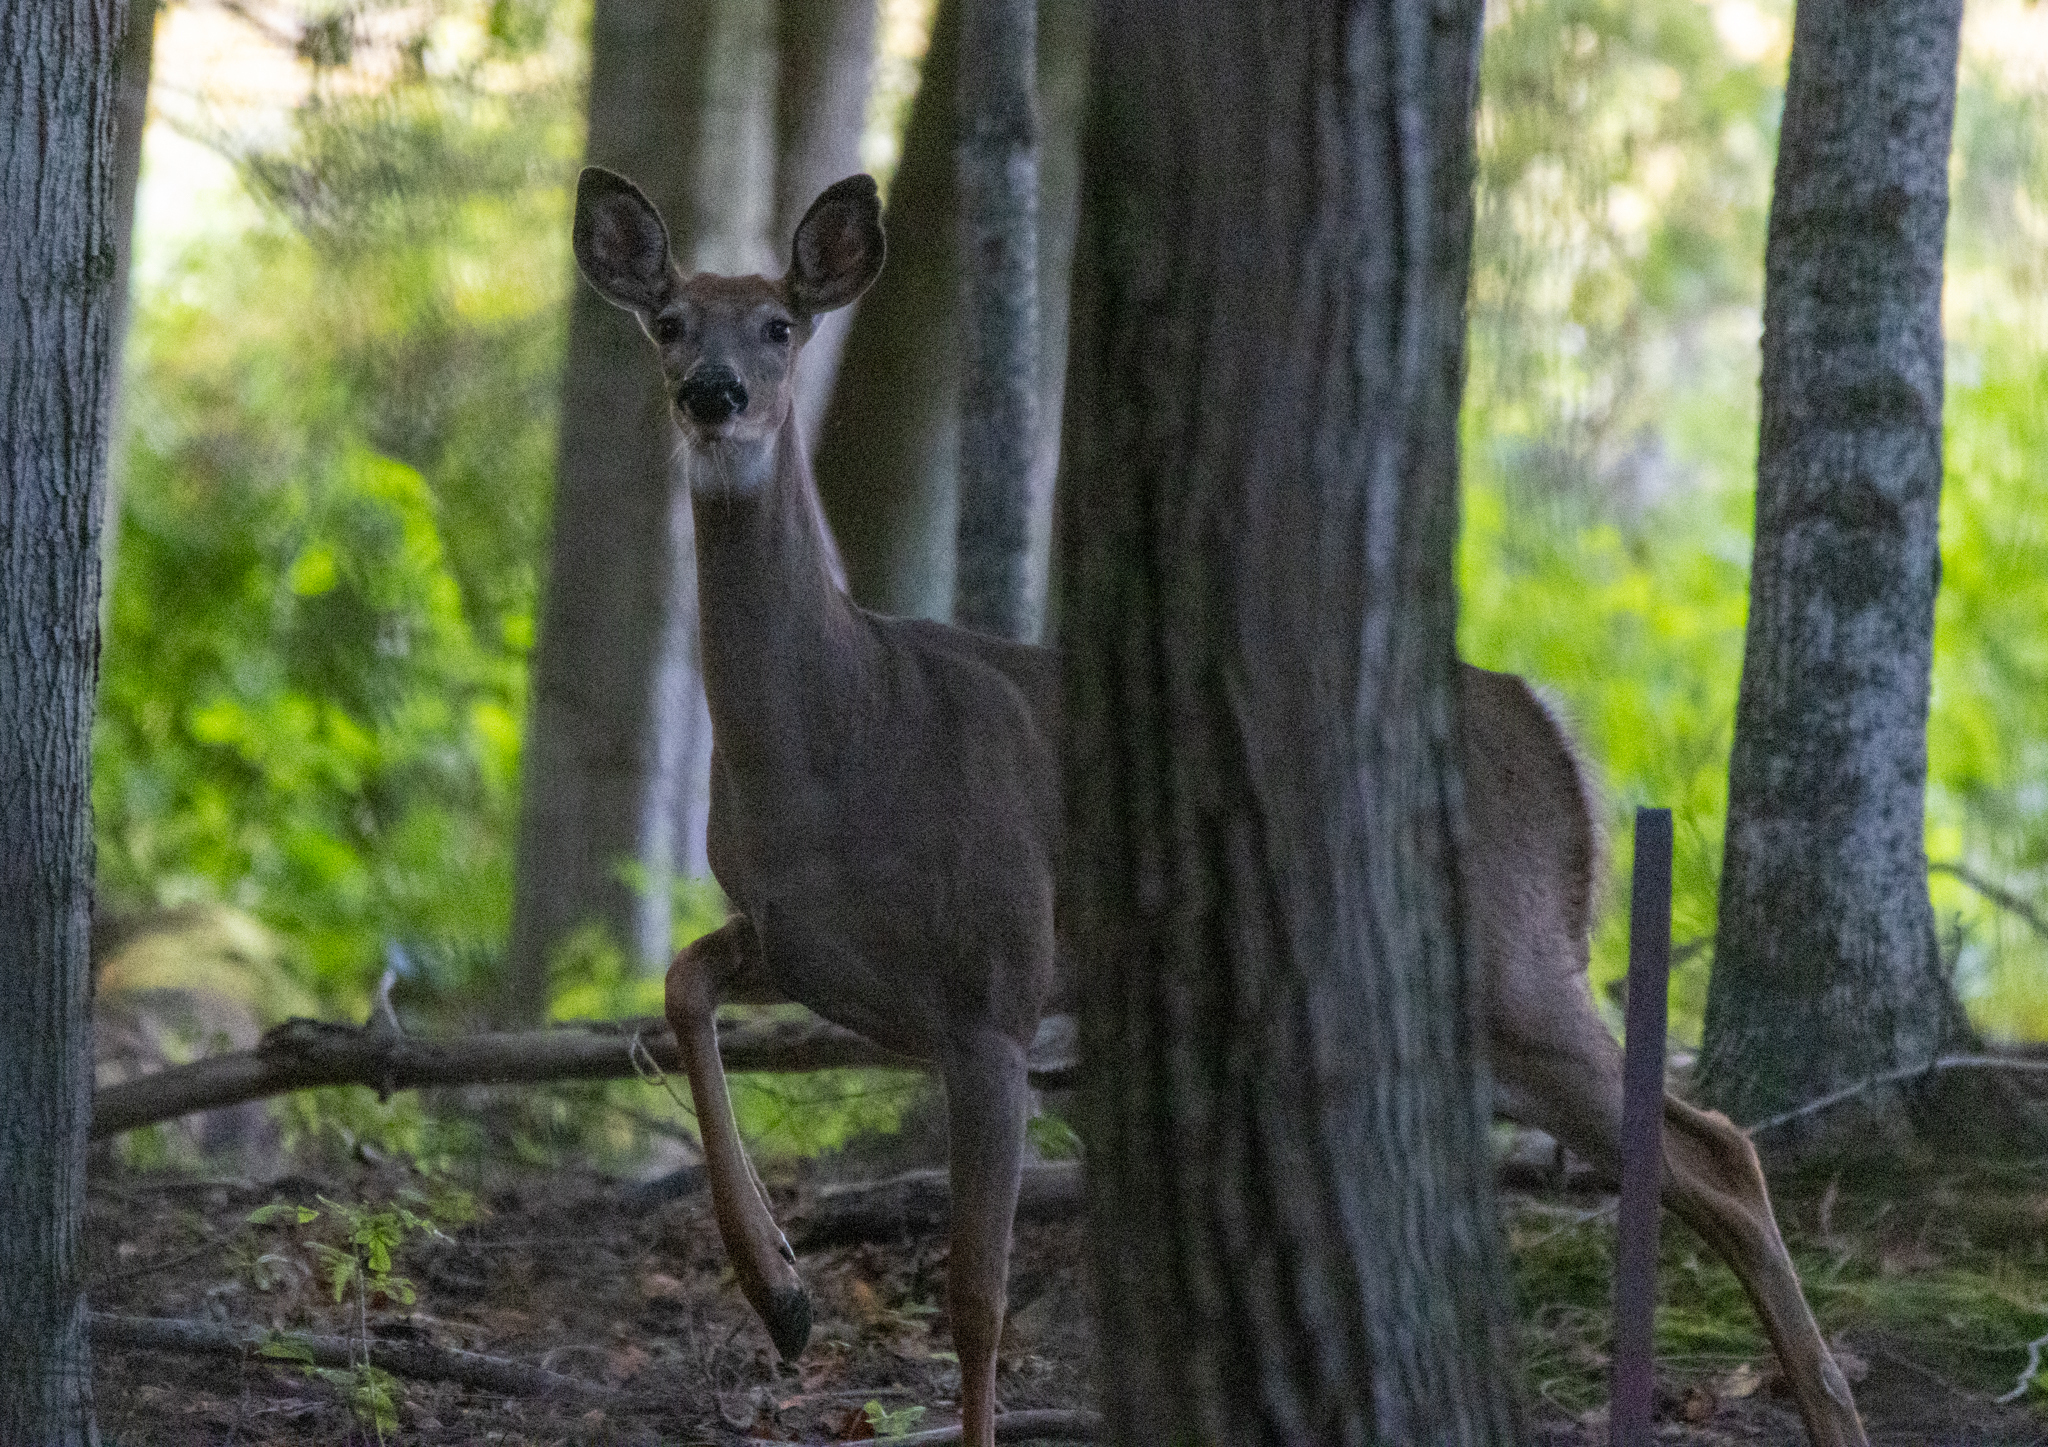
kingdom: Animalia
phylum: Chordata
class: Mammalia
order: Artiodactyla
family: Cervidae
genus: Odocoileus
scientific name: Odocoileus virginianus
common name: White-tailed deer
